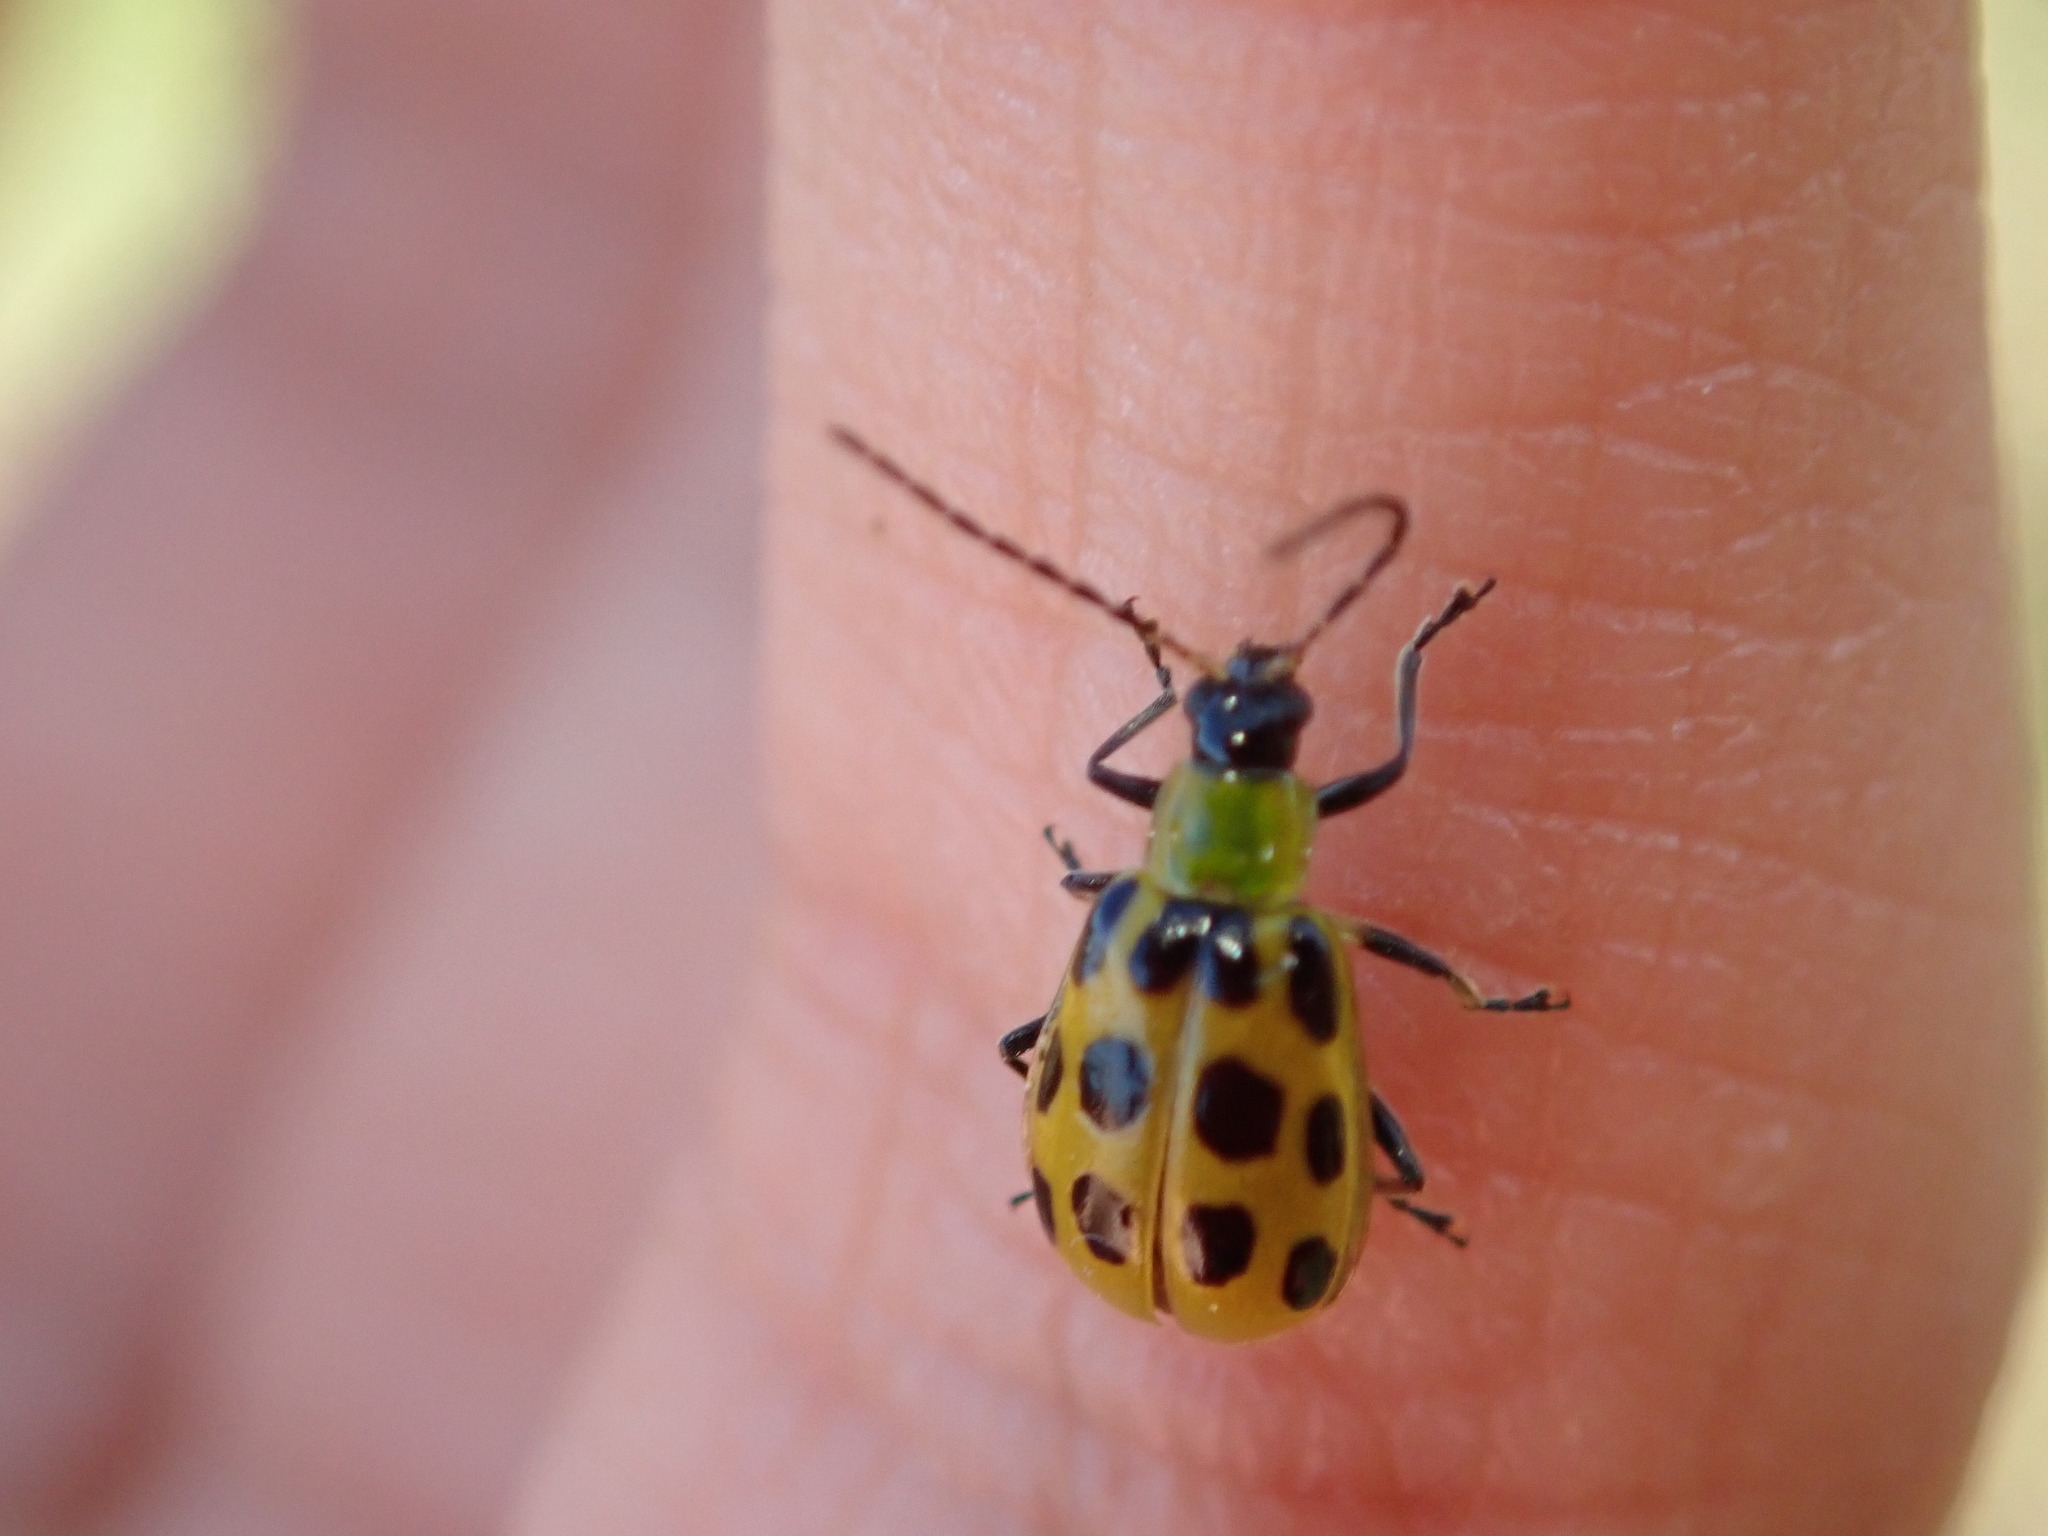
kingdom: Animalia
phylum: Arthropoda
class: Insecta
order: Coleoptera
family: Chrysomelidae
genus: Diabrotica
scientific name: Diabrotica undecimpunctata
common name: Spotted cucumber beetle
